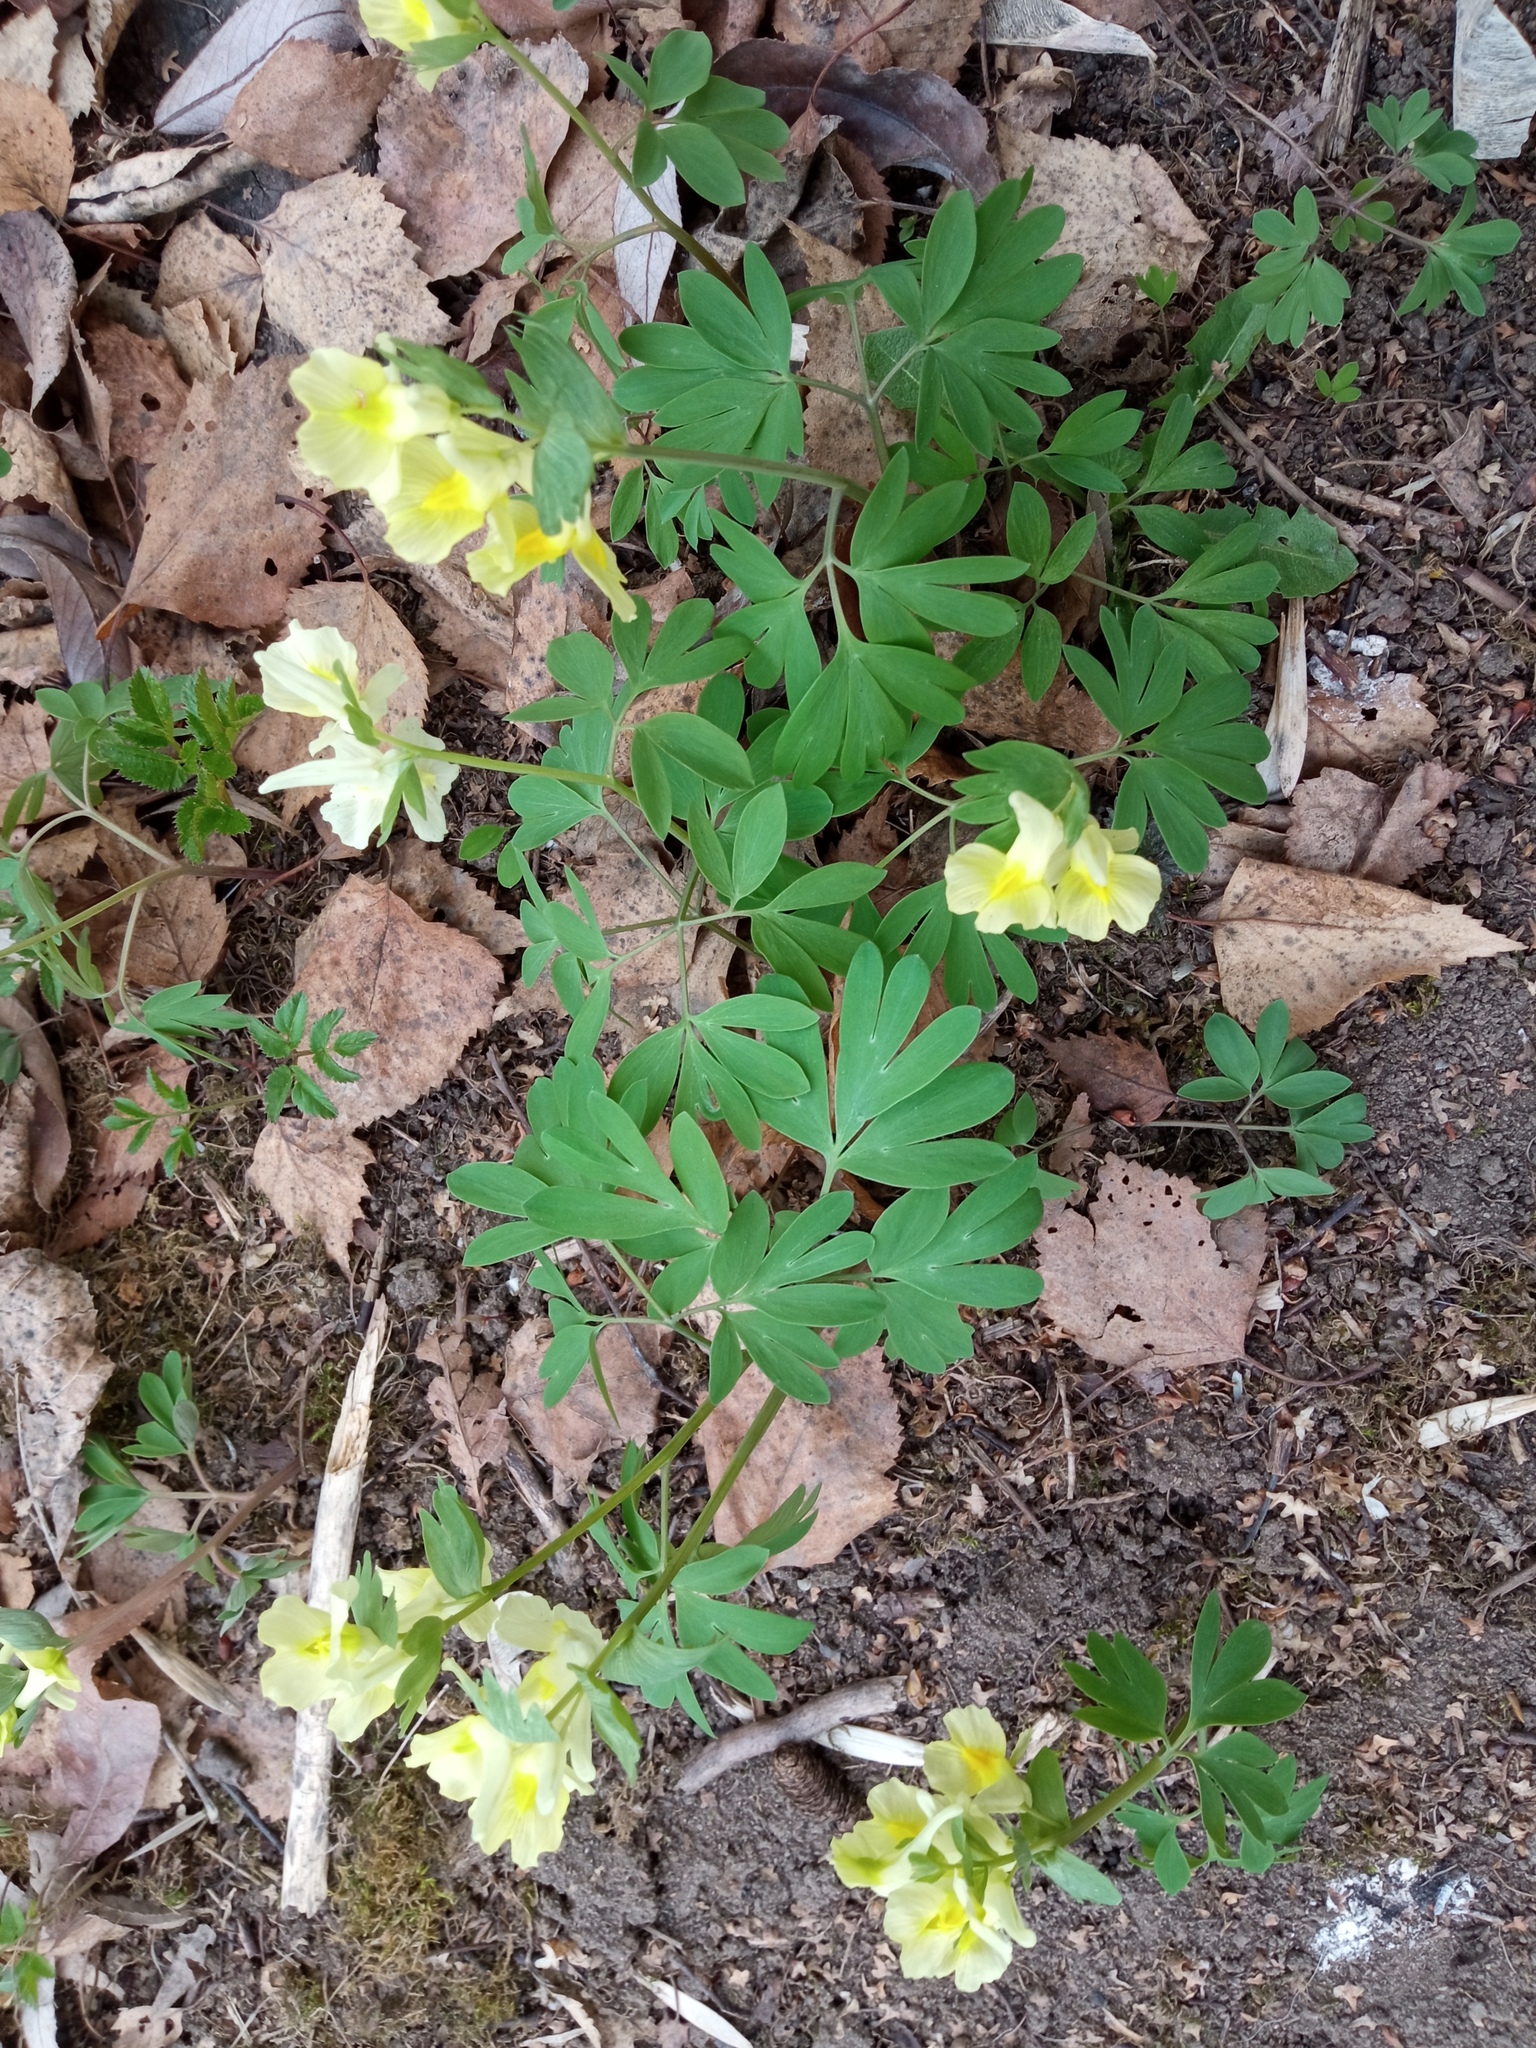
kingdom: Plantae
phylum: Tracheophyta
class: Magnoliopsida
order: Ranunculales
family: Papaveraceae
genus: Corydalis
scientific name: Corydalis bracteata
